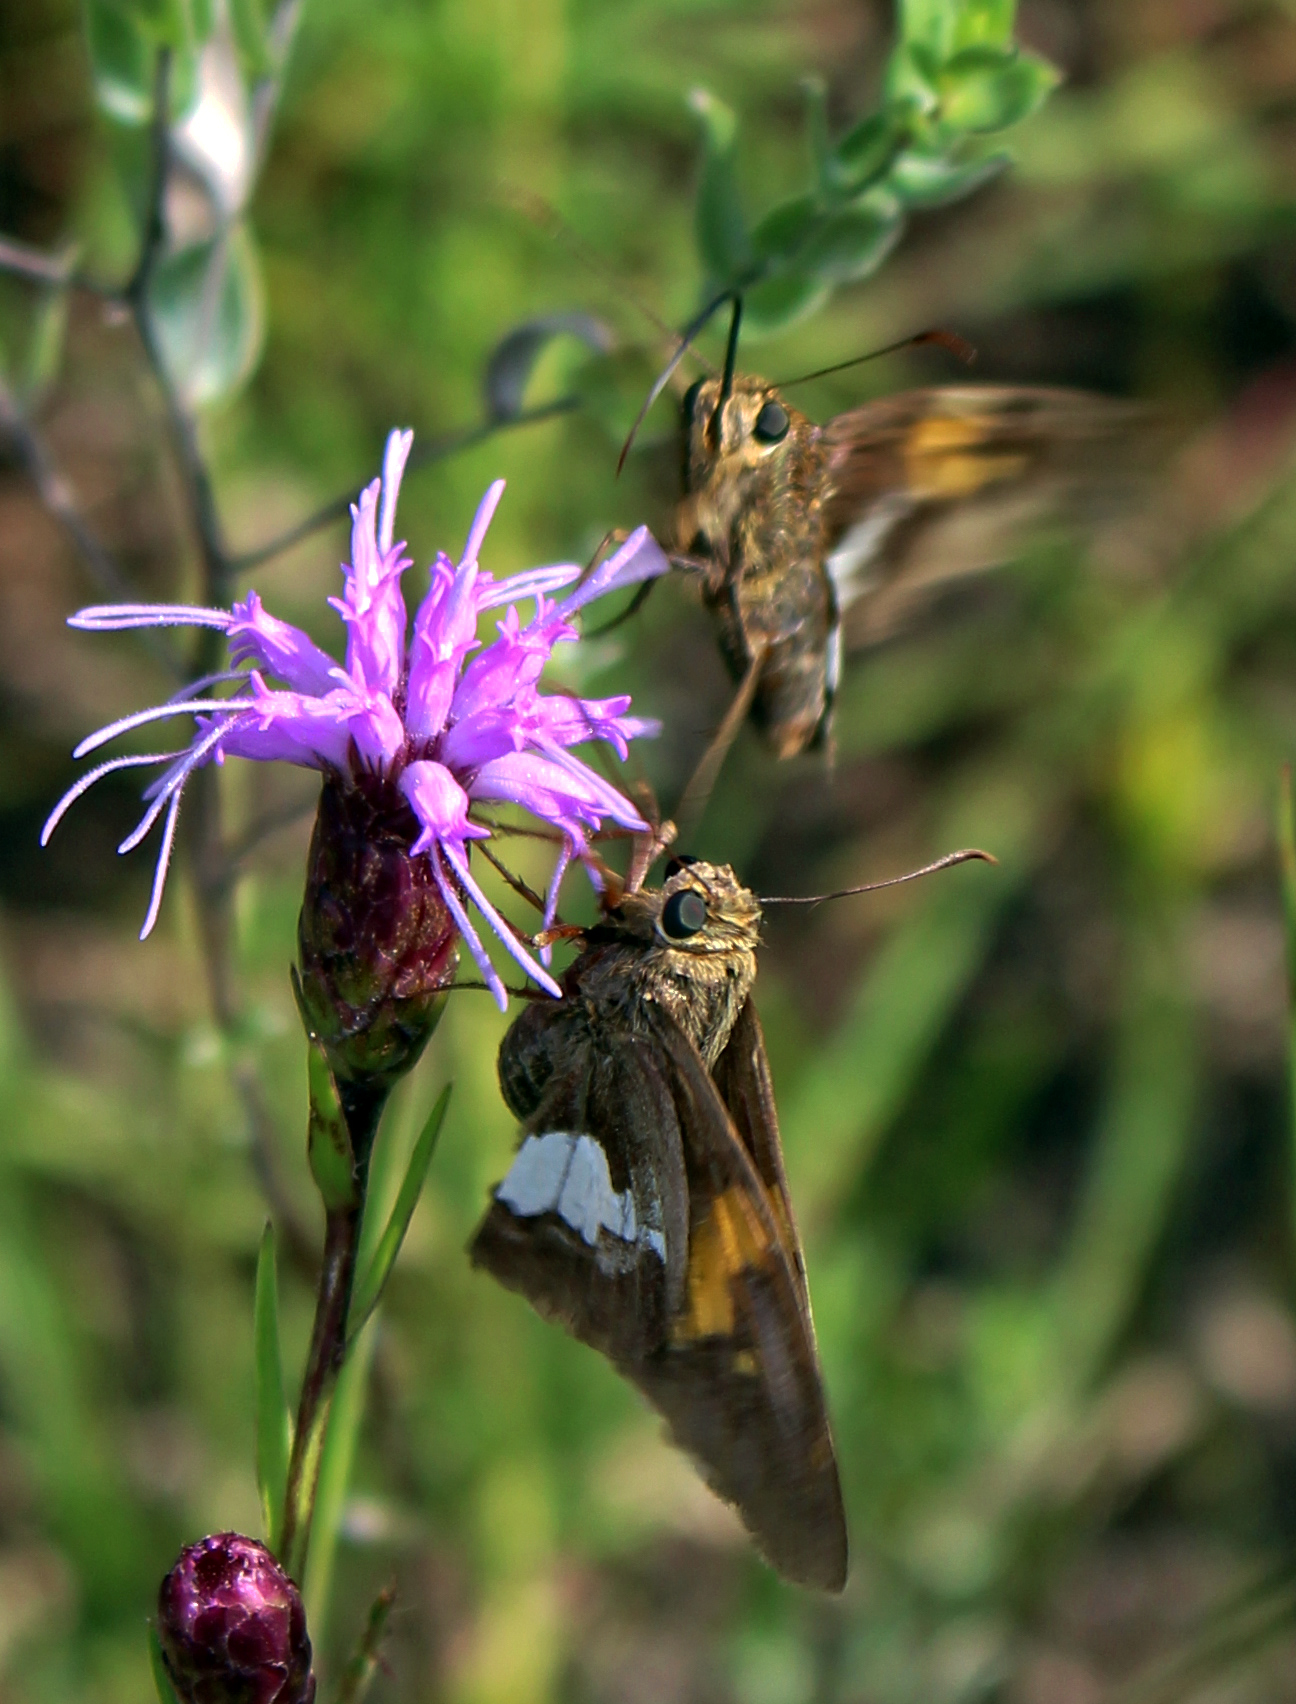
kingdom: Animalia
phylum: Arthropoda
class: Insecta
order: Lepidoptera
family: Hesperiidae
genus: Epargyreus
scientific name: Epargyreus clarus
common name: Silver-spotted skipper
